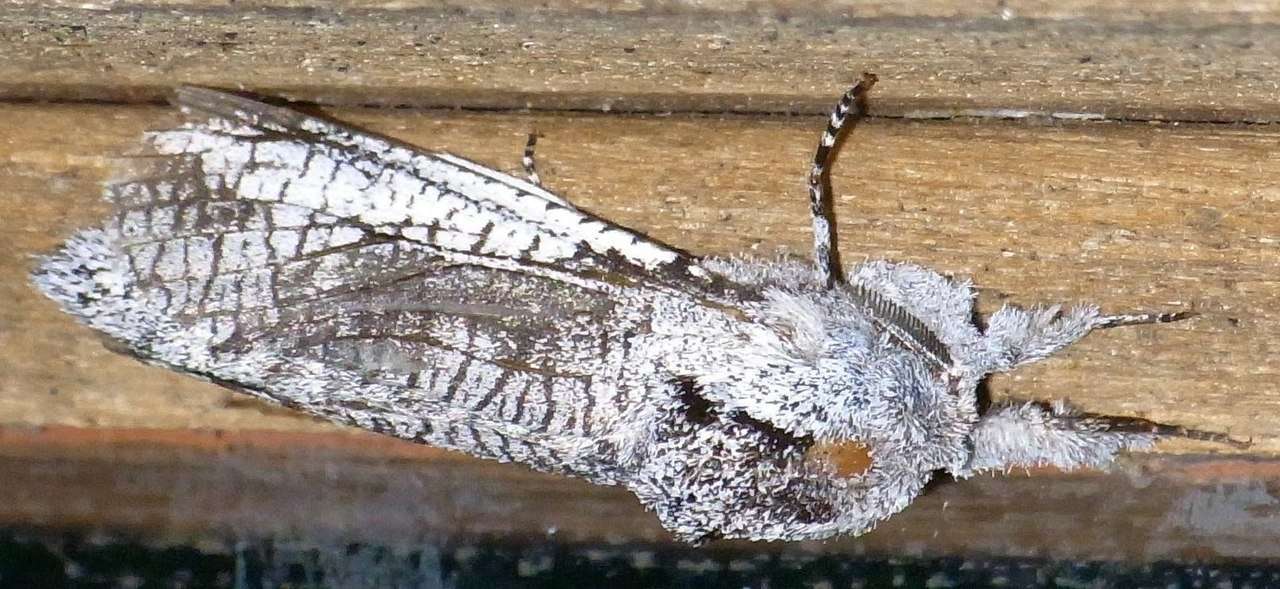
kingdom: Animalia
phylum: Arthropoda
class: Insecta
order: Lepidoptera
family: Cossidae
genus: Endoxyla
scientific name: Endoxyla secta
